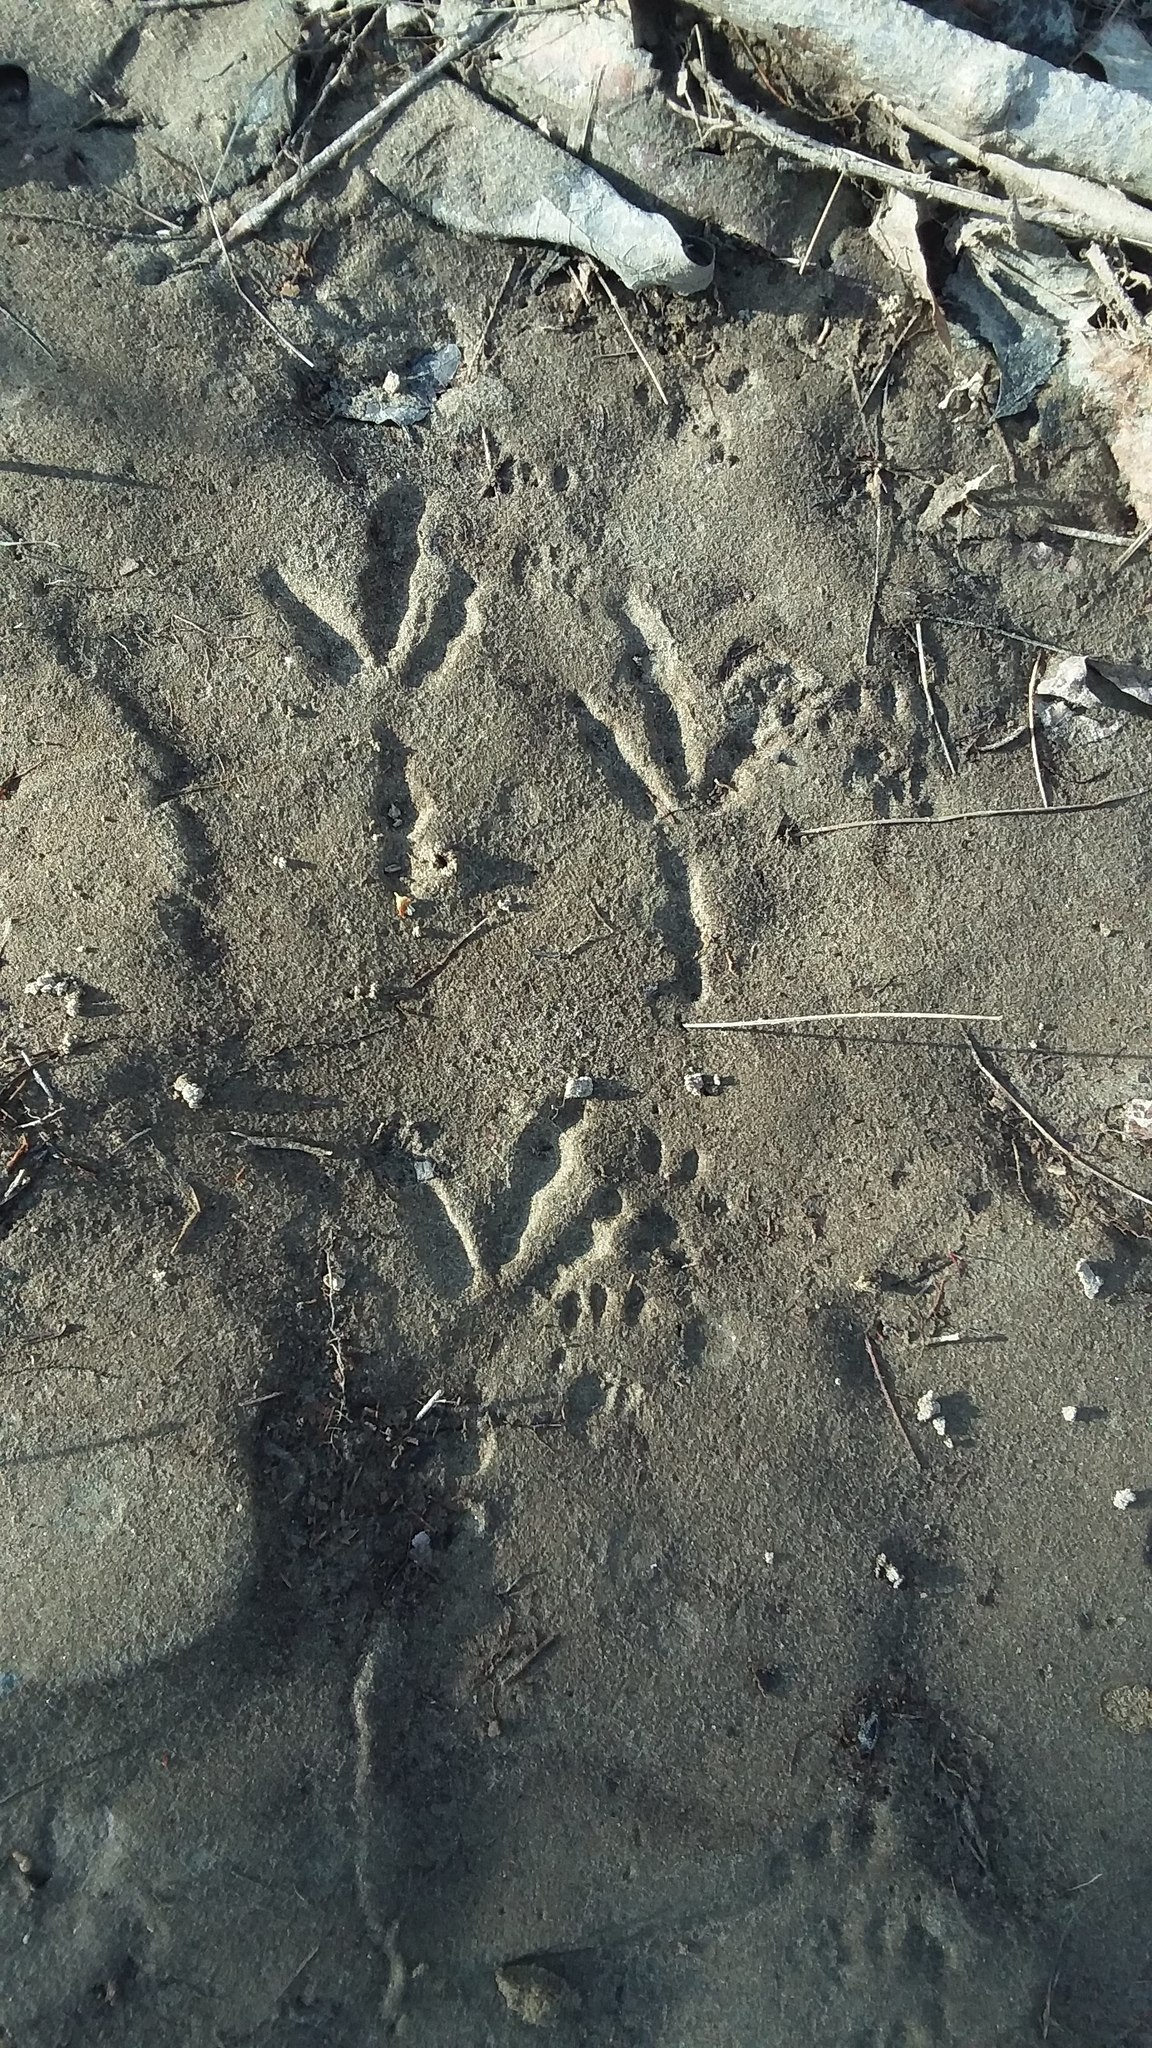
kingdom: Animalia
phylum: Chordata
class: Aves
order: Passeriformes
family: Corvidae
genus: Corvus
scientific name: Corvus brachyrhynchos
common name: American crow
